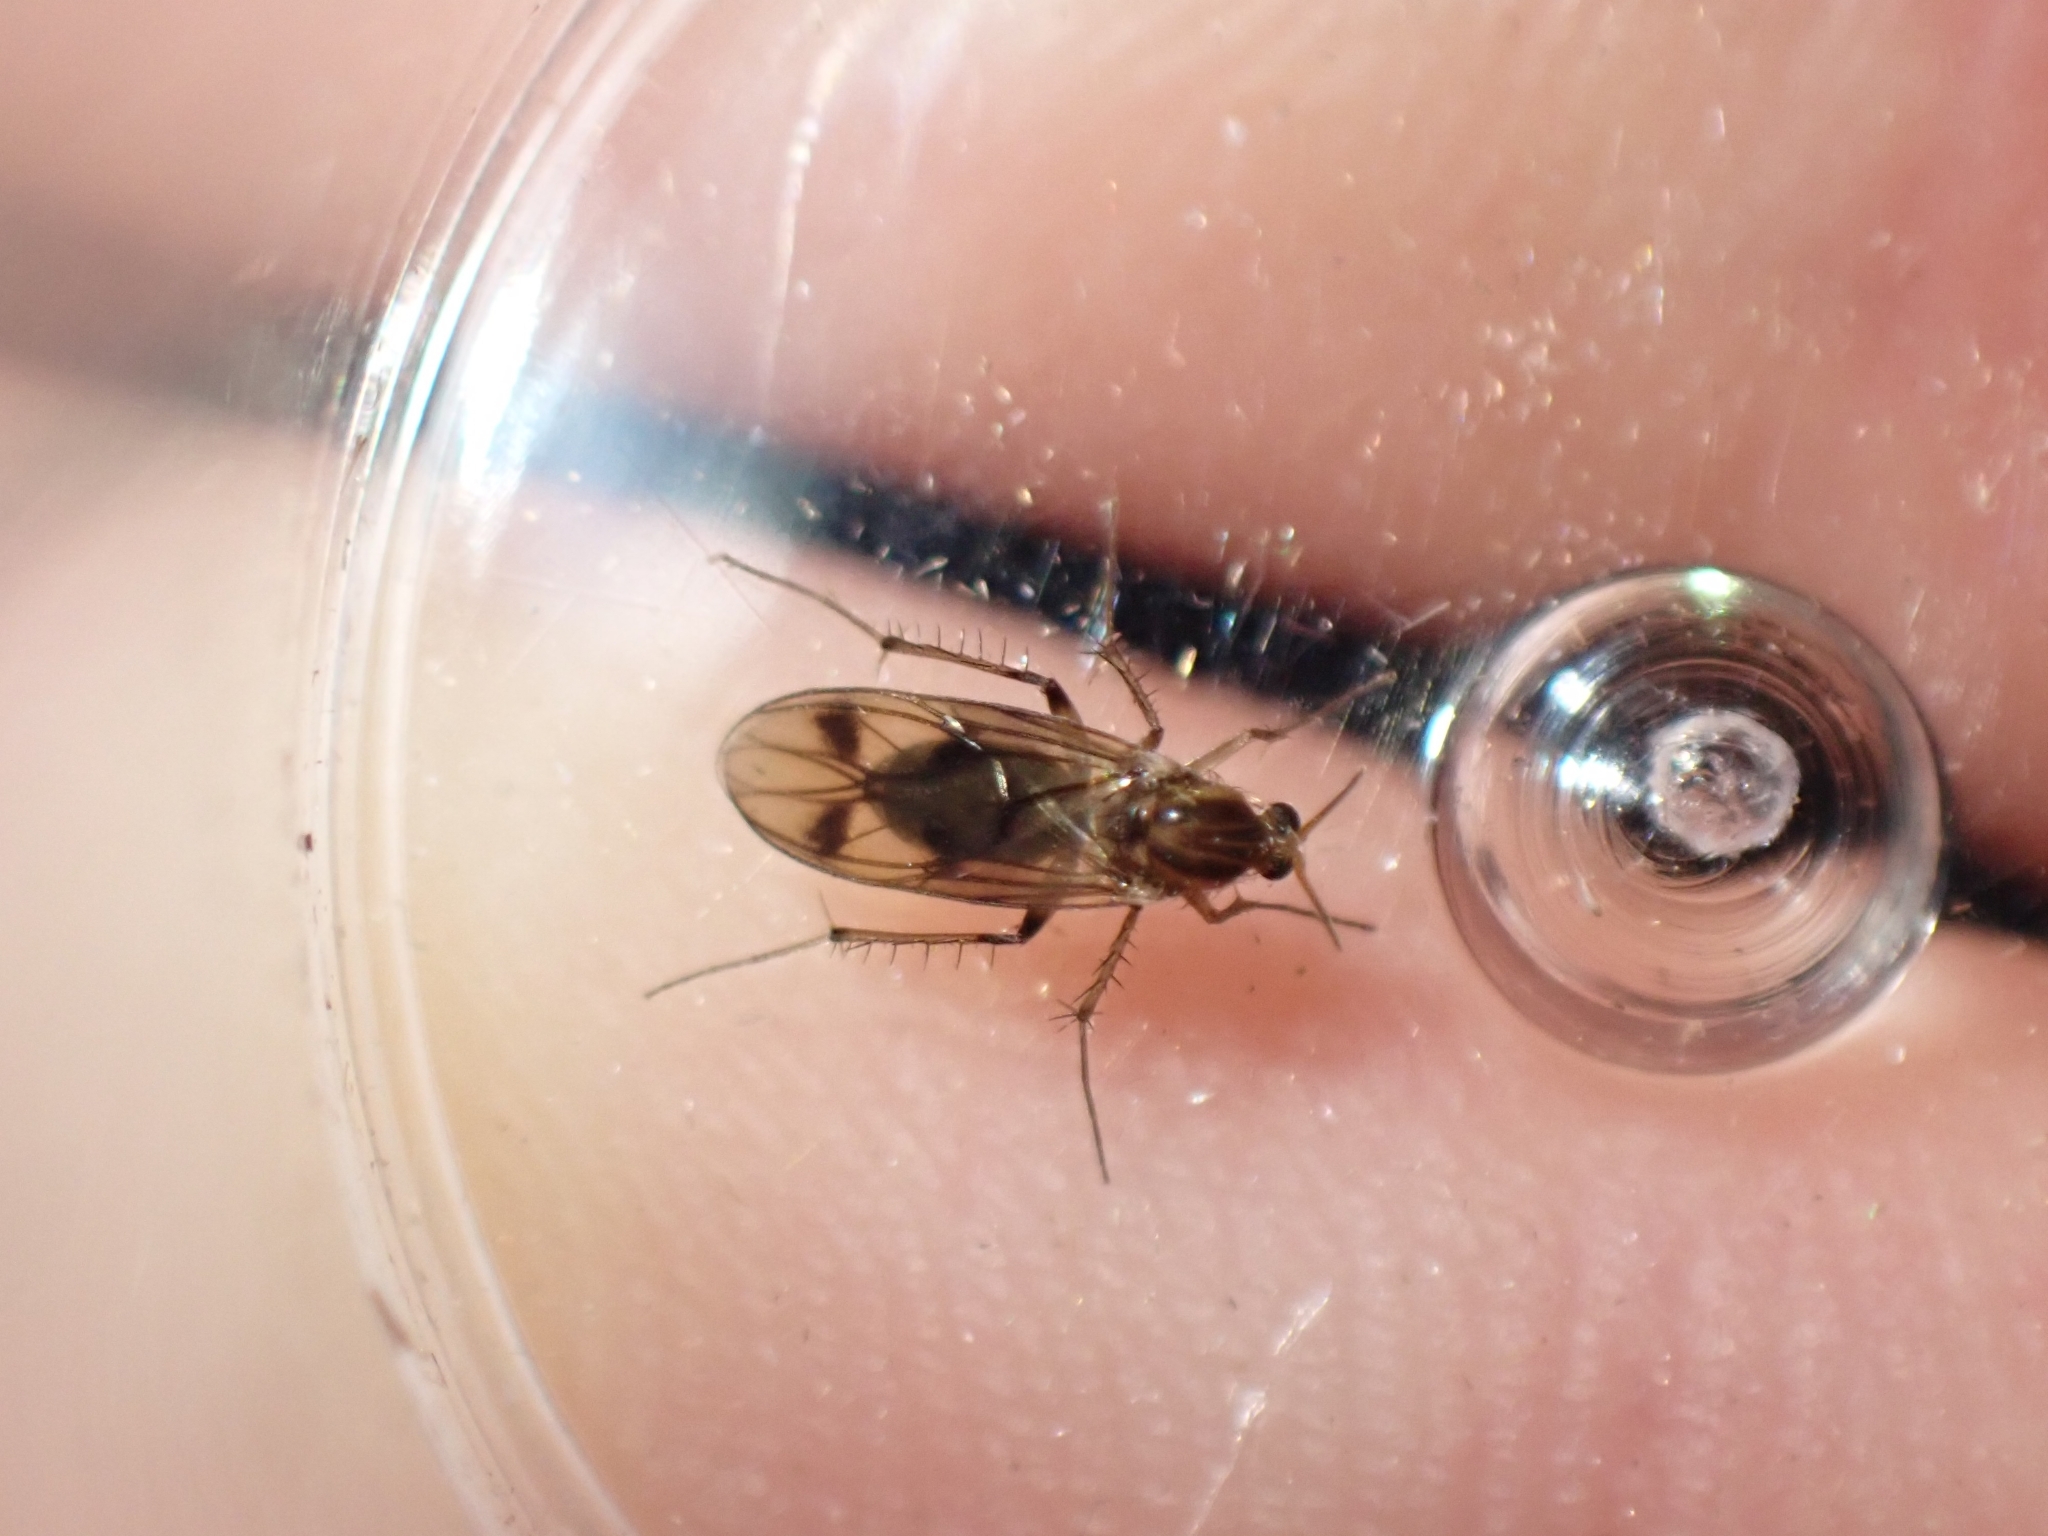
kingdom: Animalia
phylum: Arthropoda
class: Insecta
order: Diptera
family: Mycetophilidae
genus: Anomalomyia
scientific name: Anomalomyia guttata
